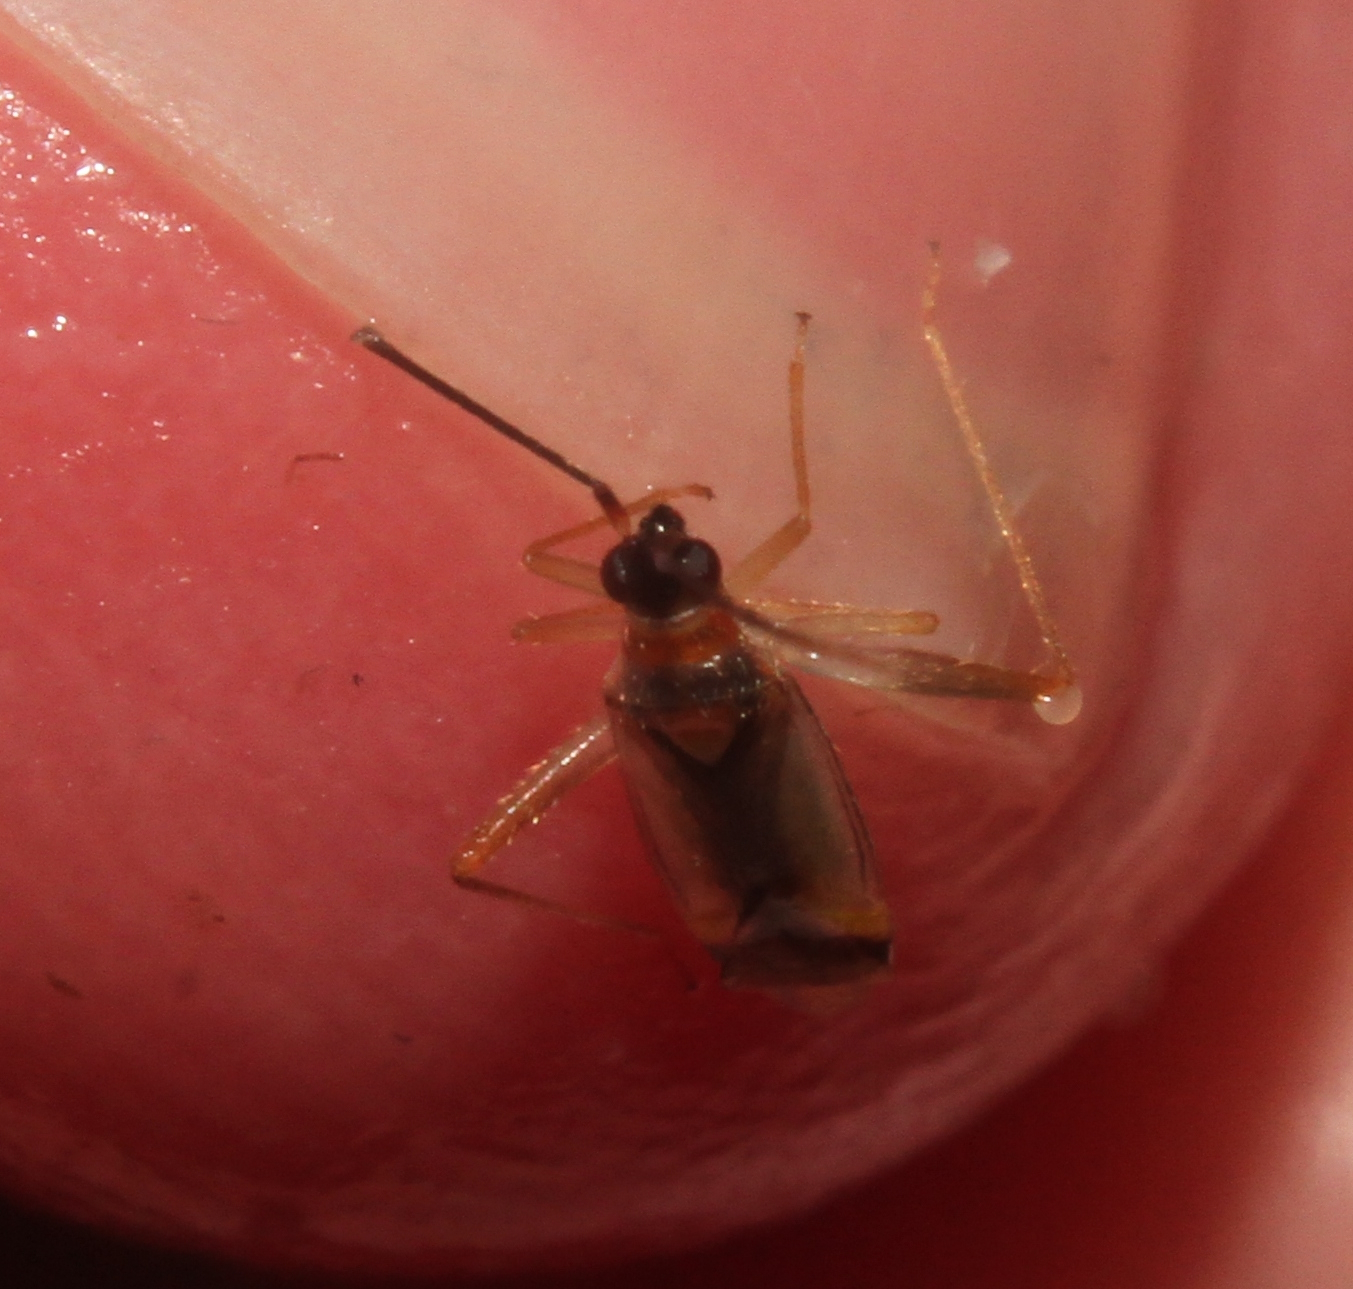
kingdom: Animalia
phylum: Arthropoda
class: Insecta
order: Hemiptera
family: Miridae
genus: Campyloneura
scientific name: Campyloneura virgula
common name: Predatory bug
